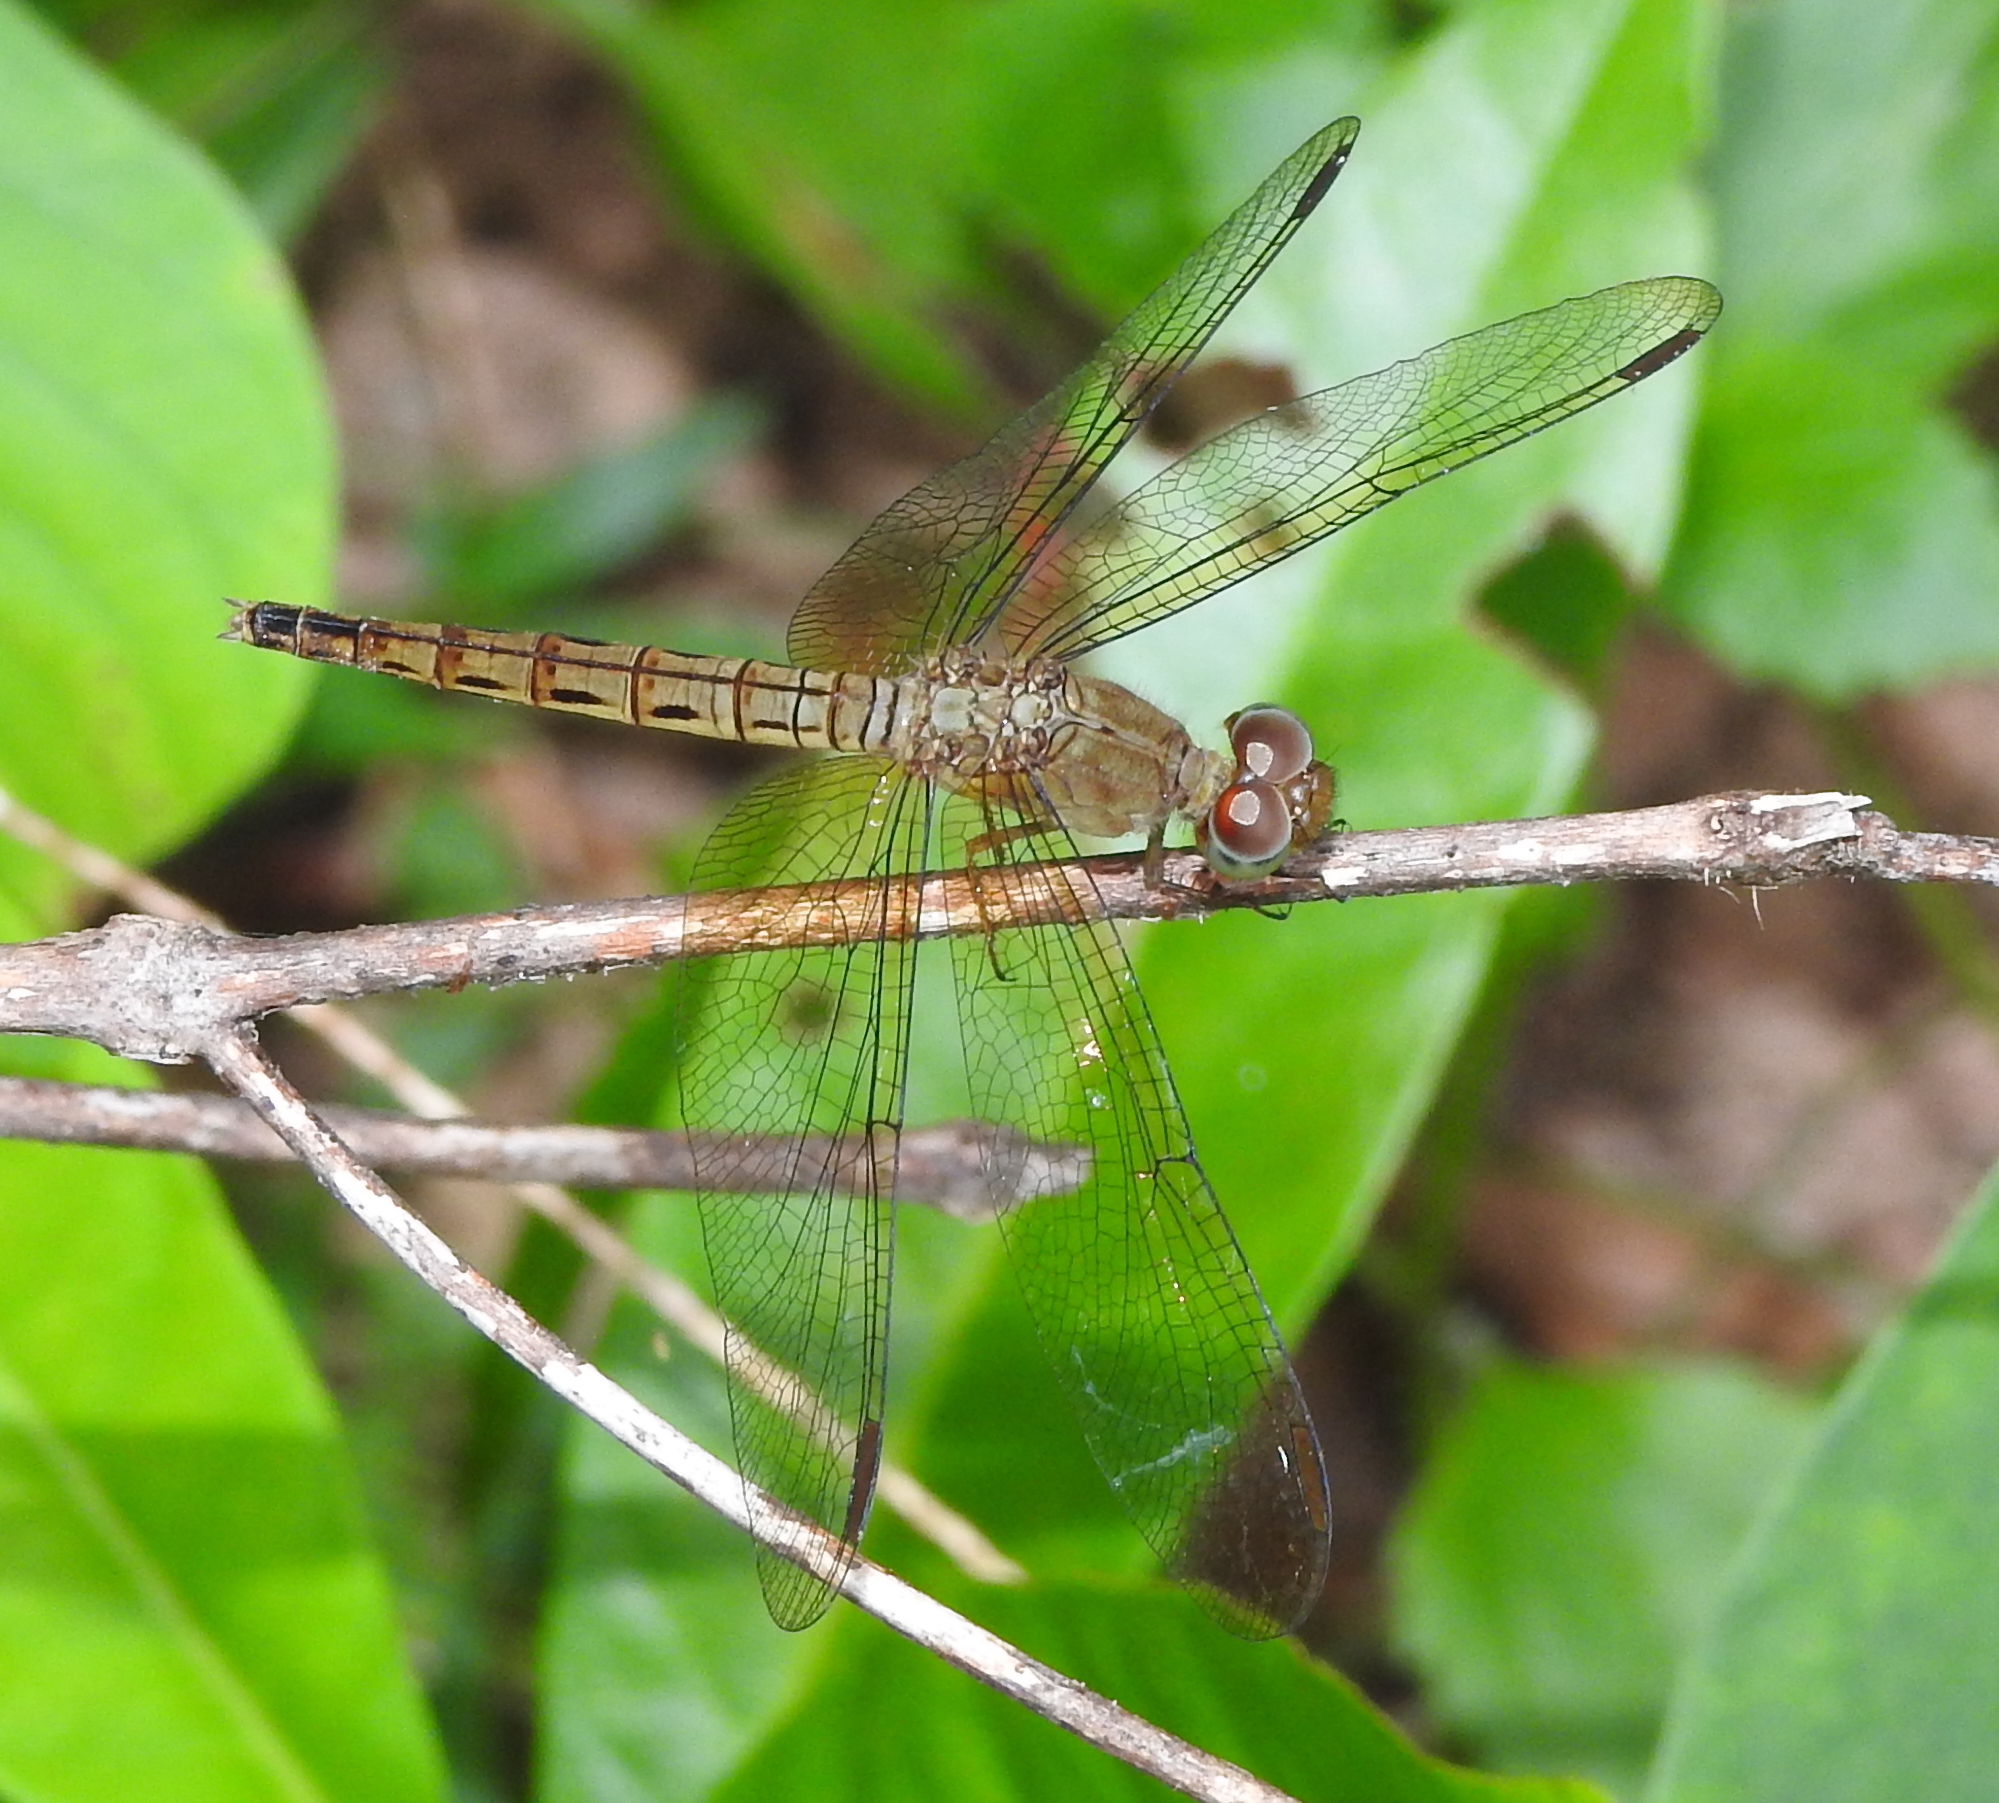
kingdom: Animalia
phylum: Arthropoda
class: Insecta
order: Odonata
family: Libellulidae
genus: Neurothemis
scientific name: Neurothemis fluctuans
